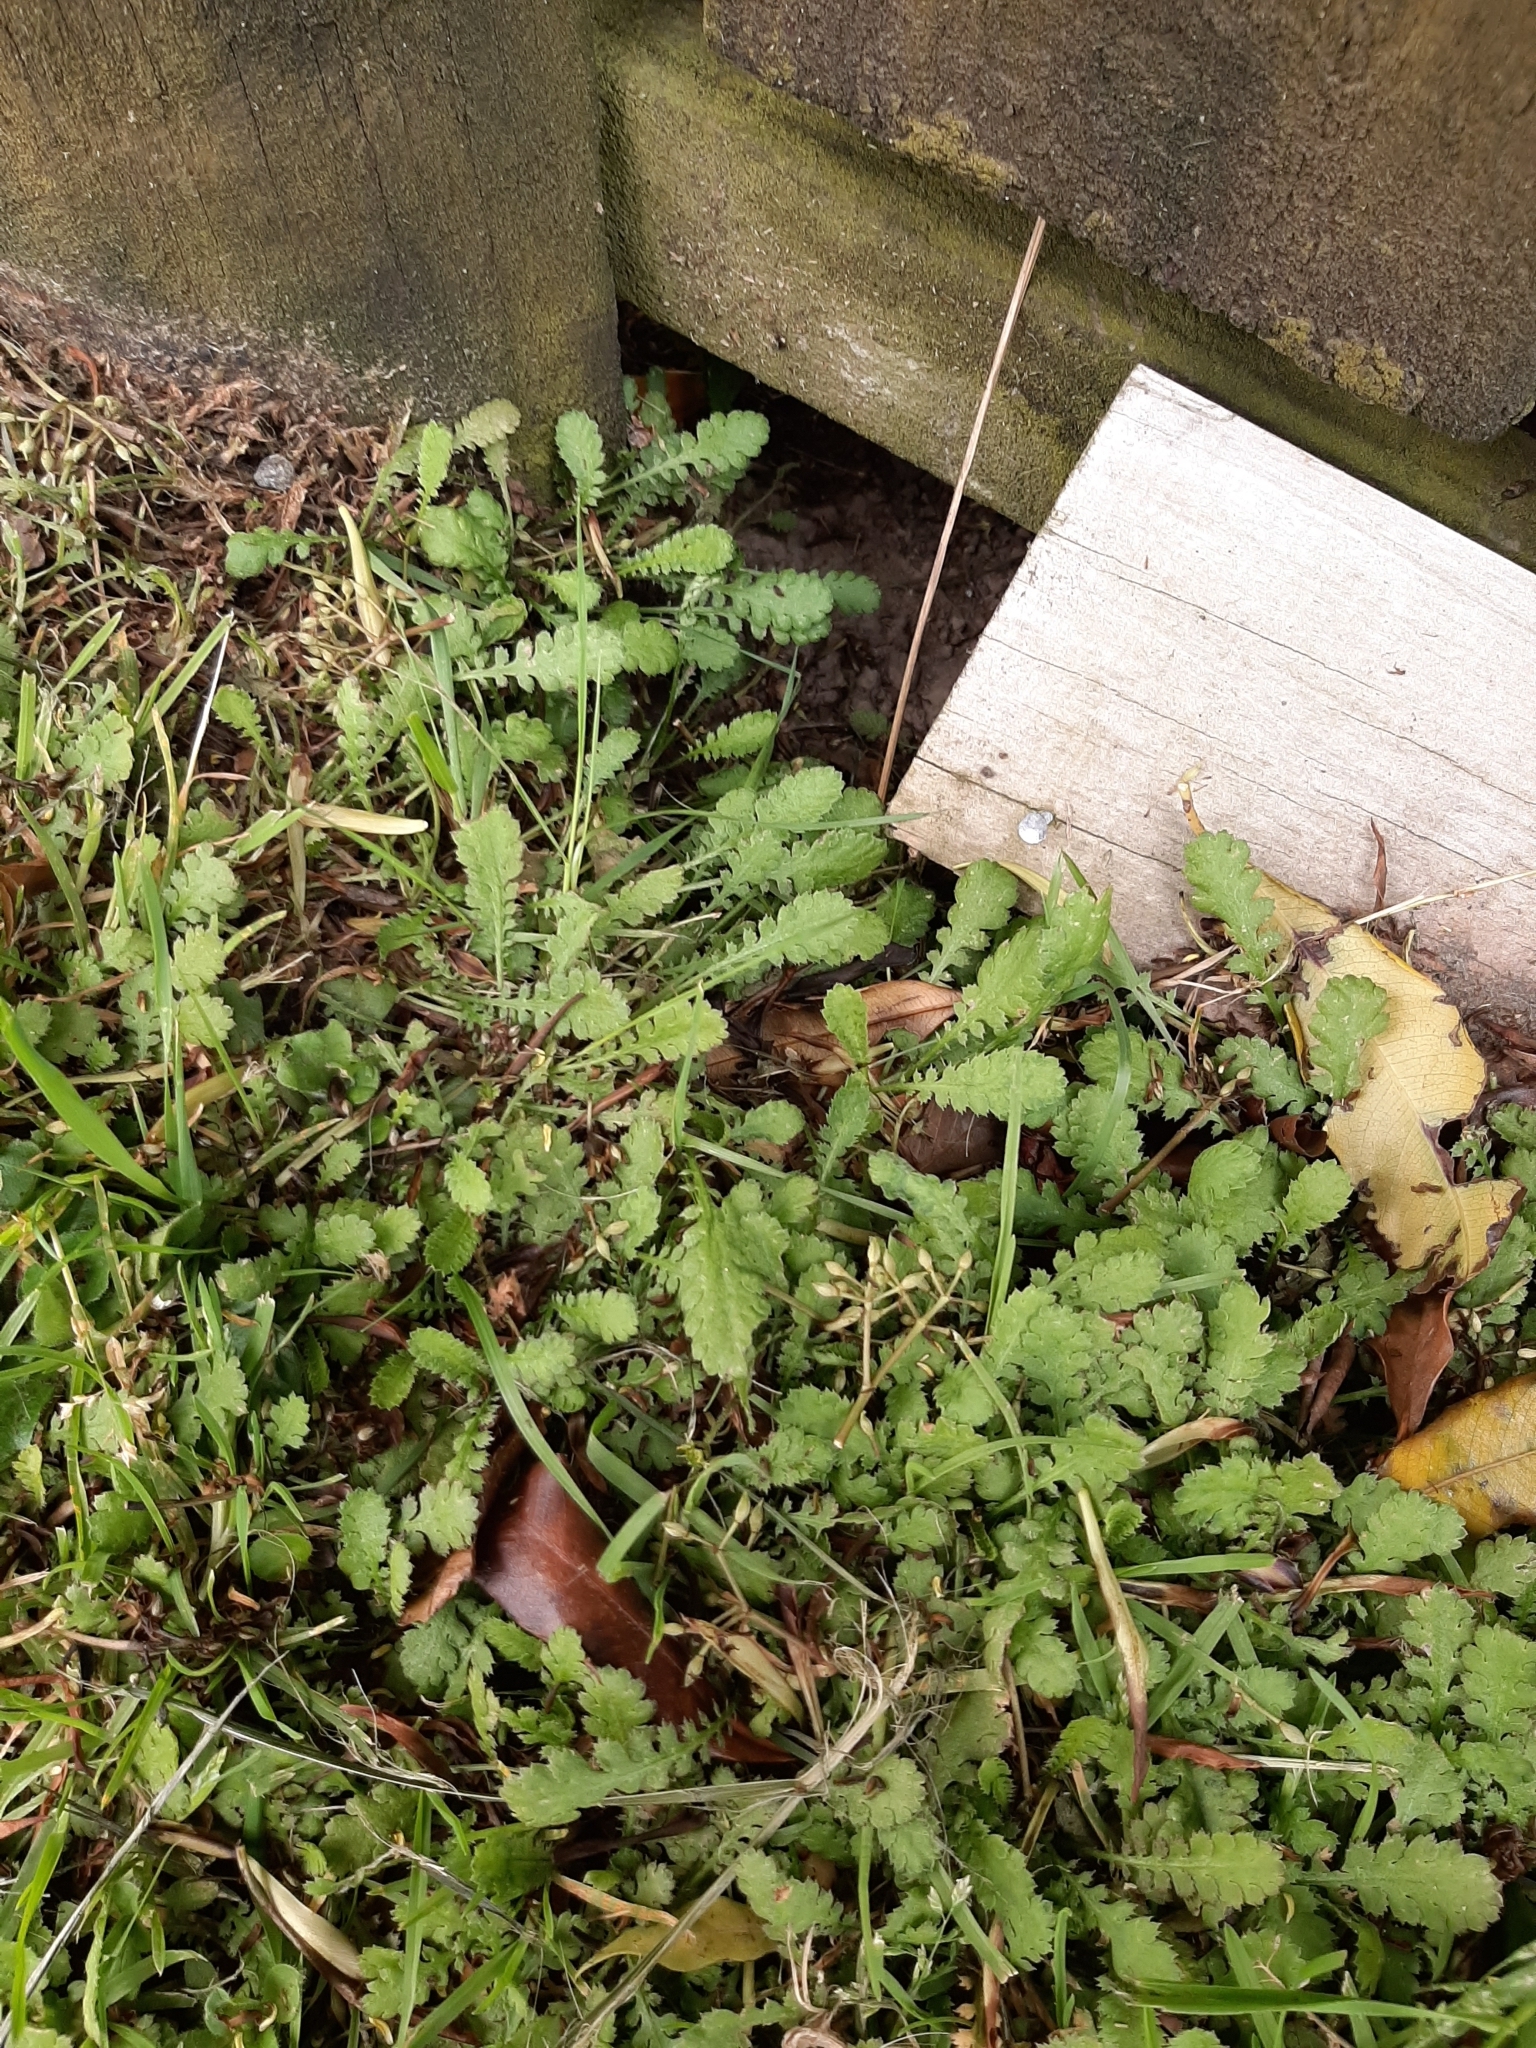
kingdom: Plantae
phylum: Tracheophyta
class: Magnoliopsida
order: Asterales
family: Asteraceae
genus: Leptinella
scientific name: Leptinella dioica
